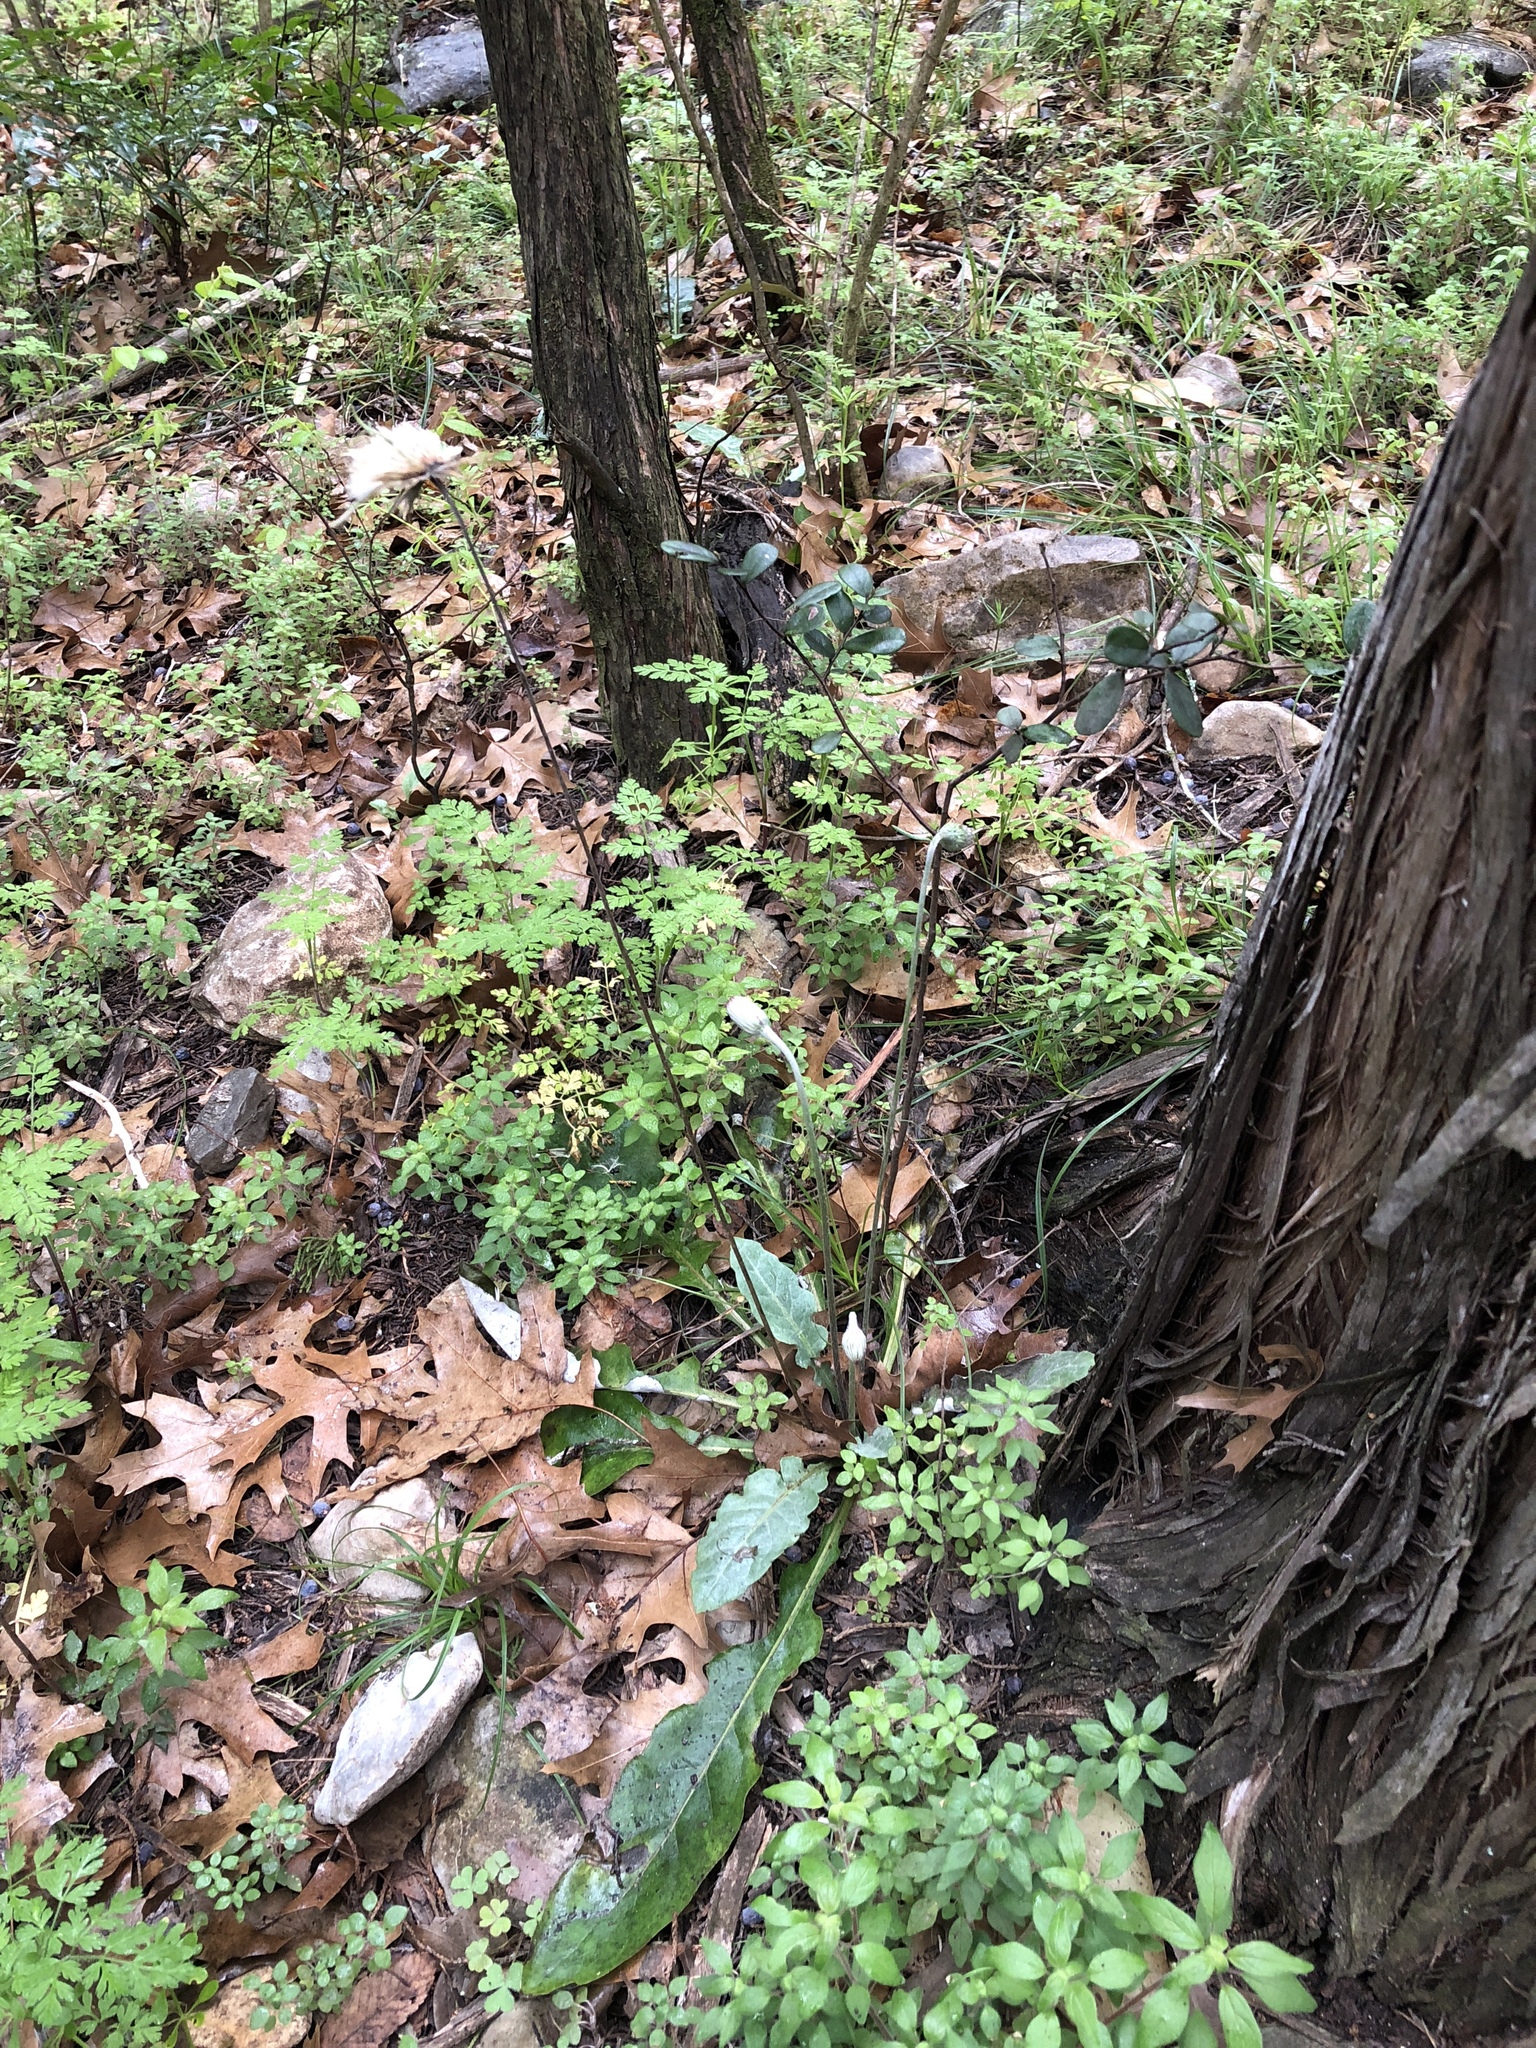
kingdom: Plantae
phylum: Tracheophyta
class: Magnoliopsida
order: Asterales
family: Asteraceae
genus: Chaptalia
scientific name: Chaptalia texana
